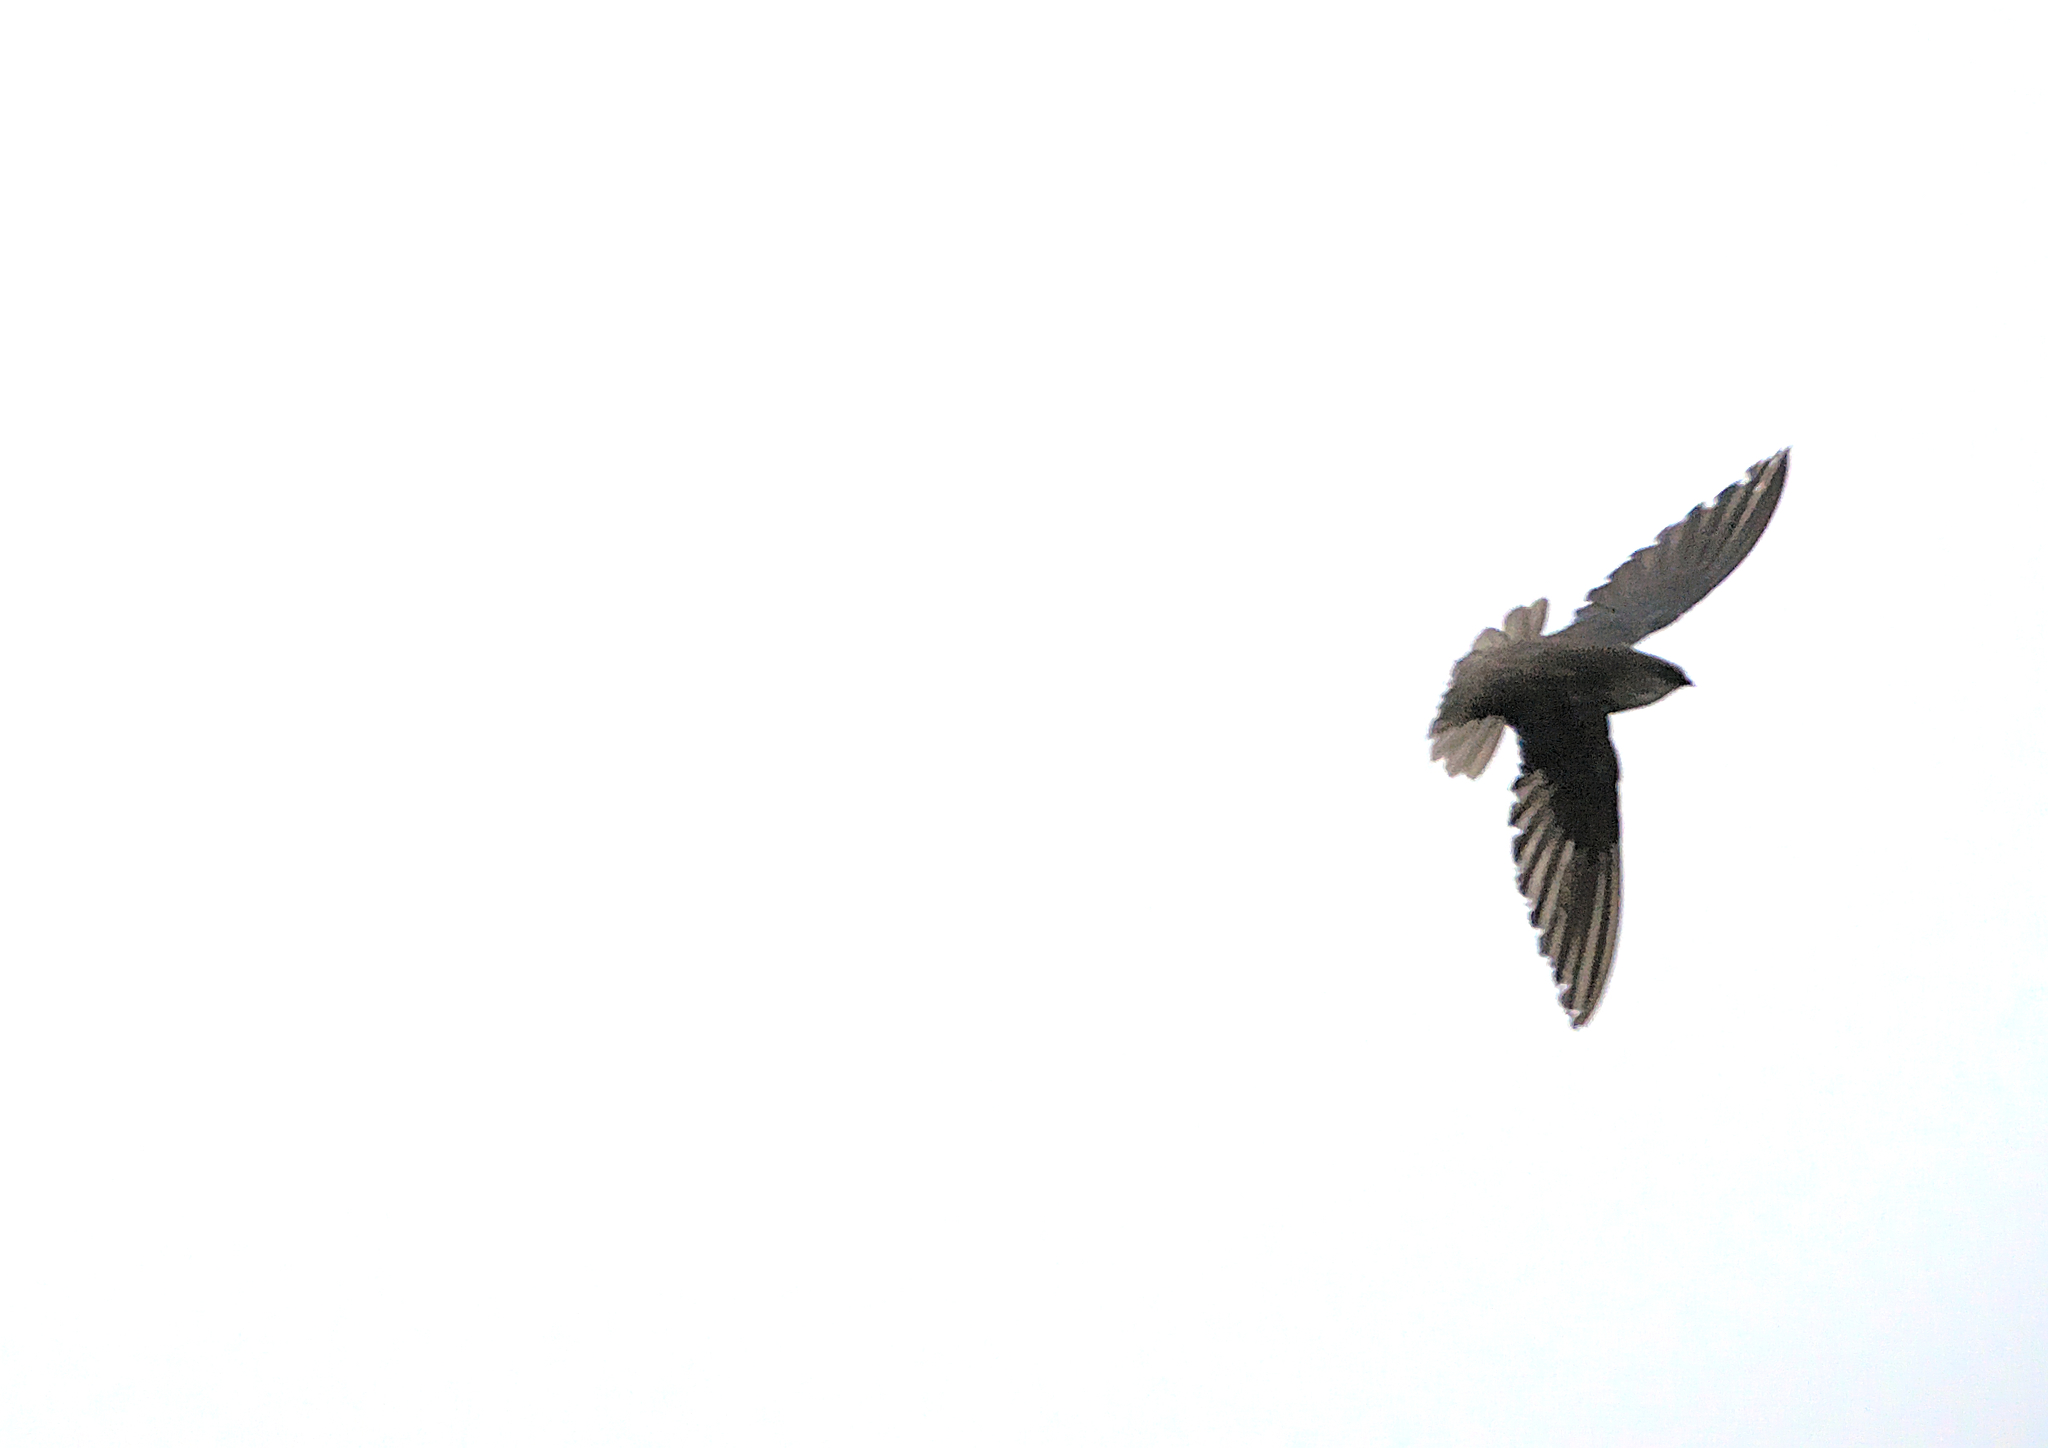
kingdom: Animalia
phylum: Chordata
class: Aves
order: Apodiformes
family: Apodidae
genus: Chaetura
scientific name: Chaetura pelagica
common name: Chimney swift
